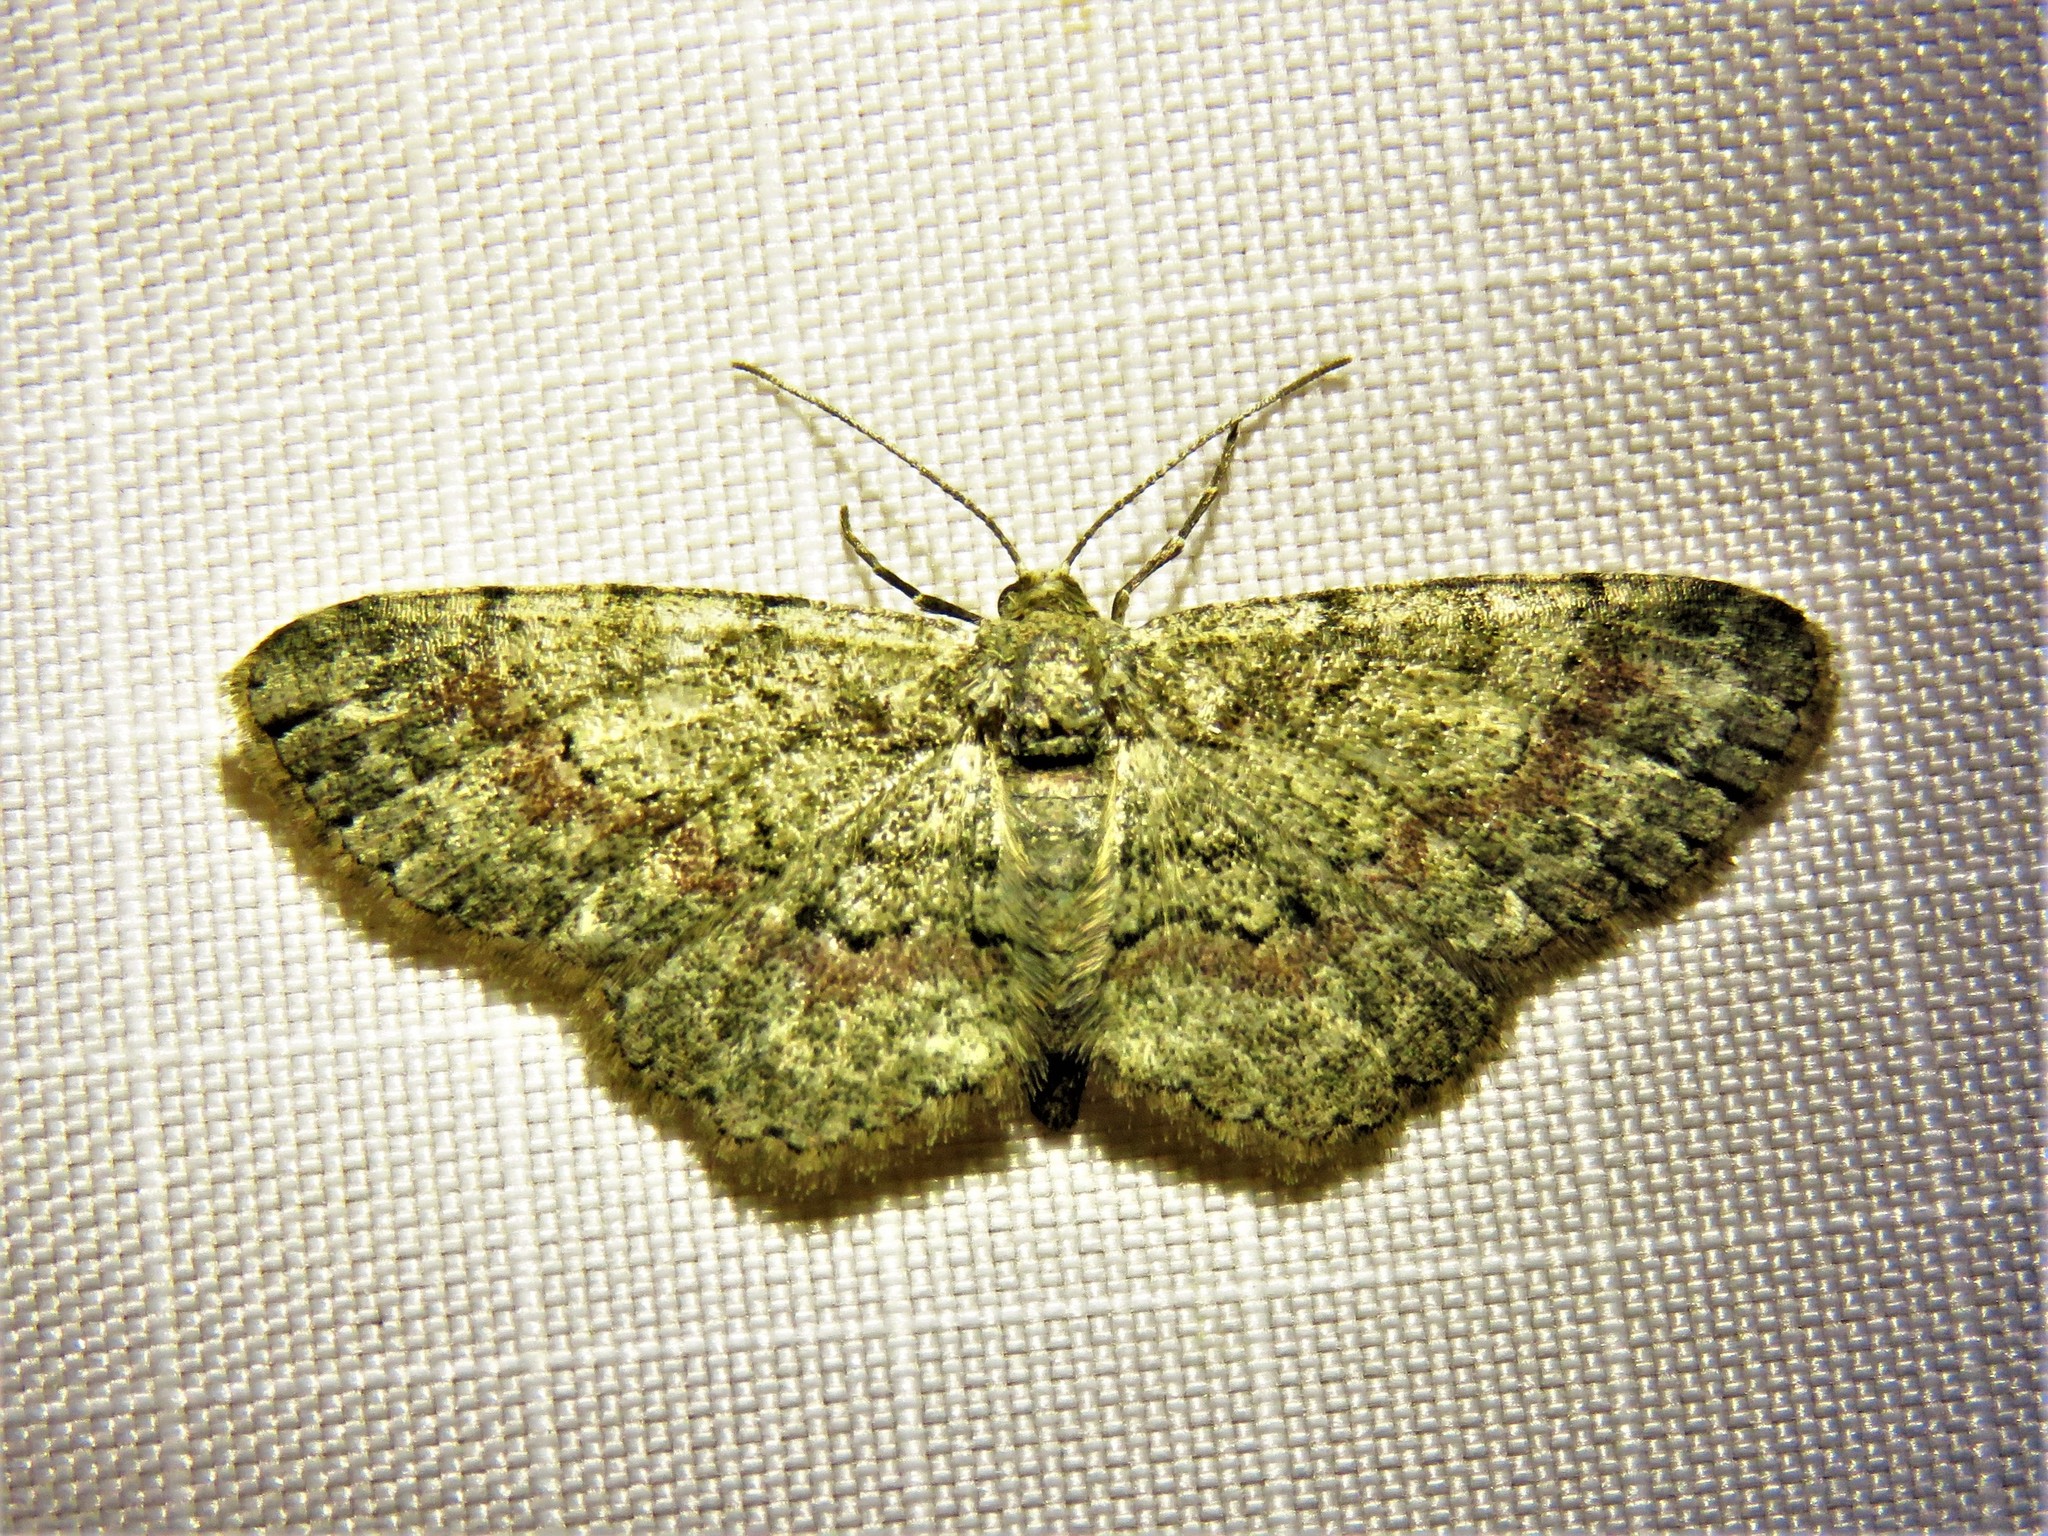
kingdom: Animalia
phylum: Arthropoda
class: Insecta
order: Lepidoptera
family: Geometridae
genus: Glenoides
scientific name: Glenoides texanaria
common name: Texas gray
